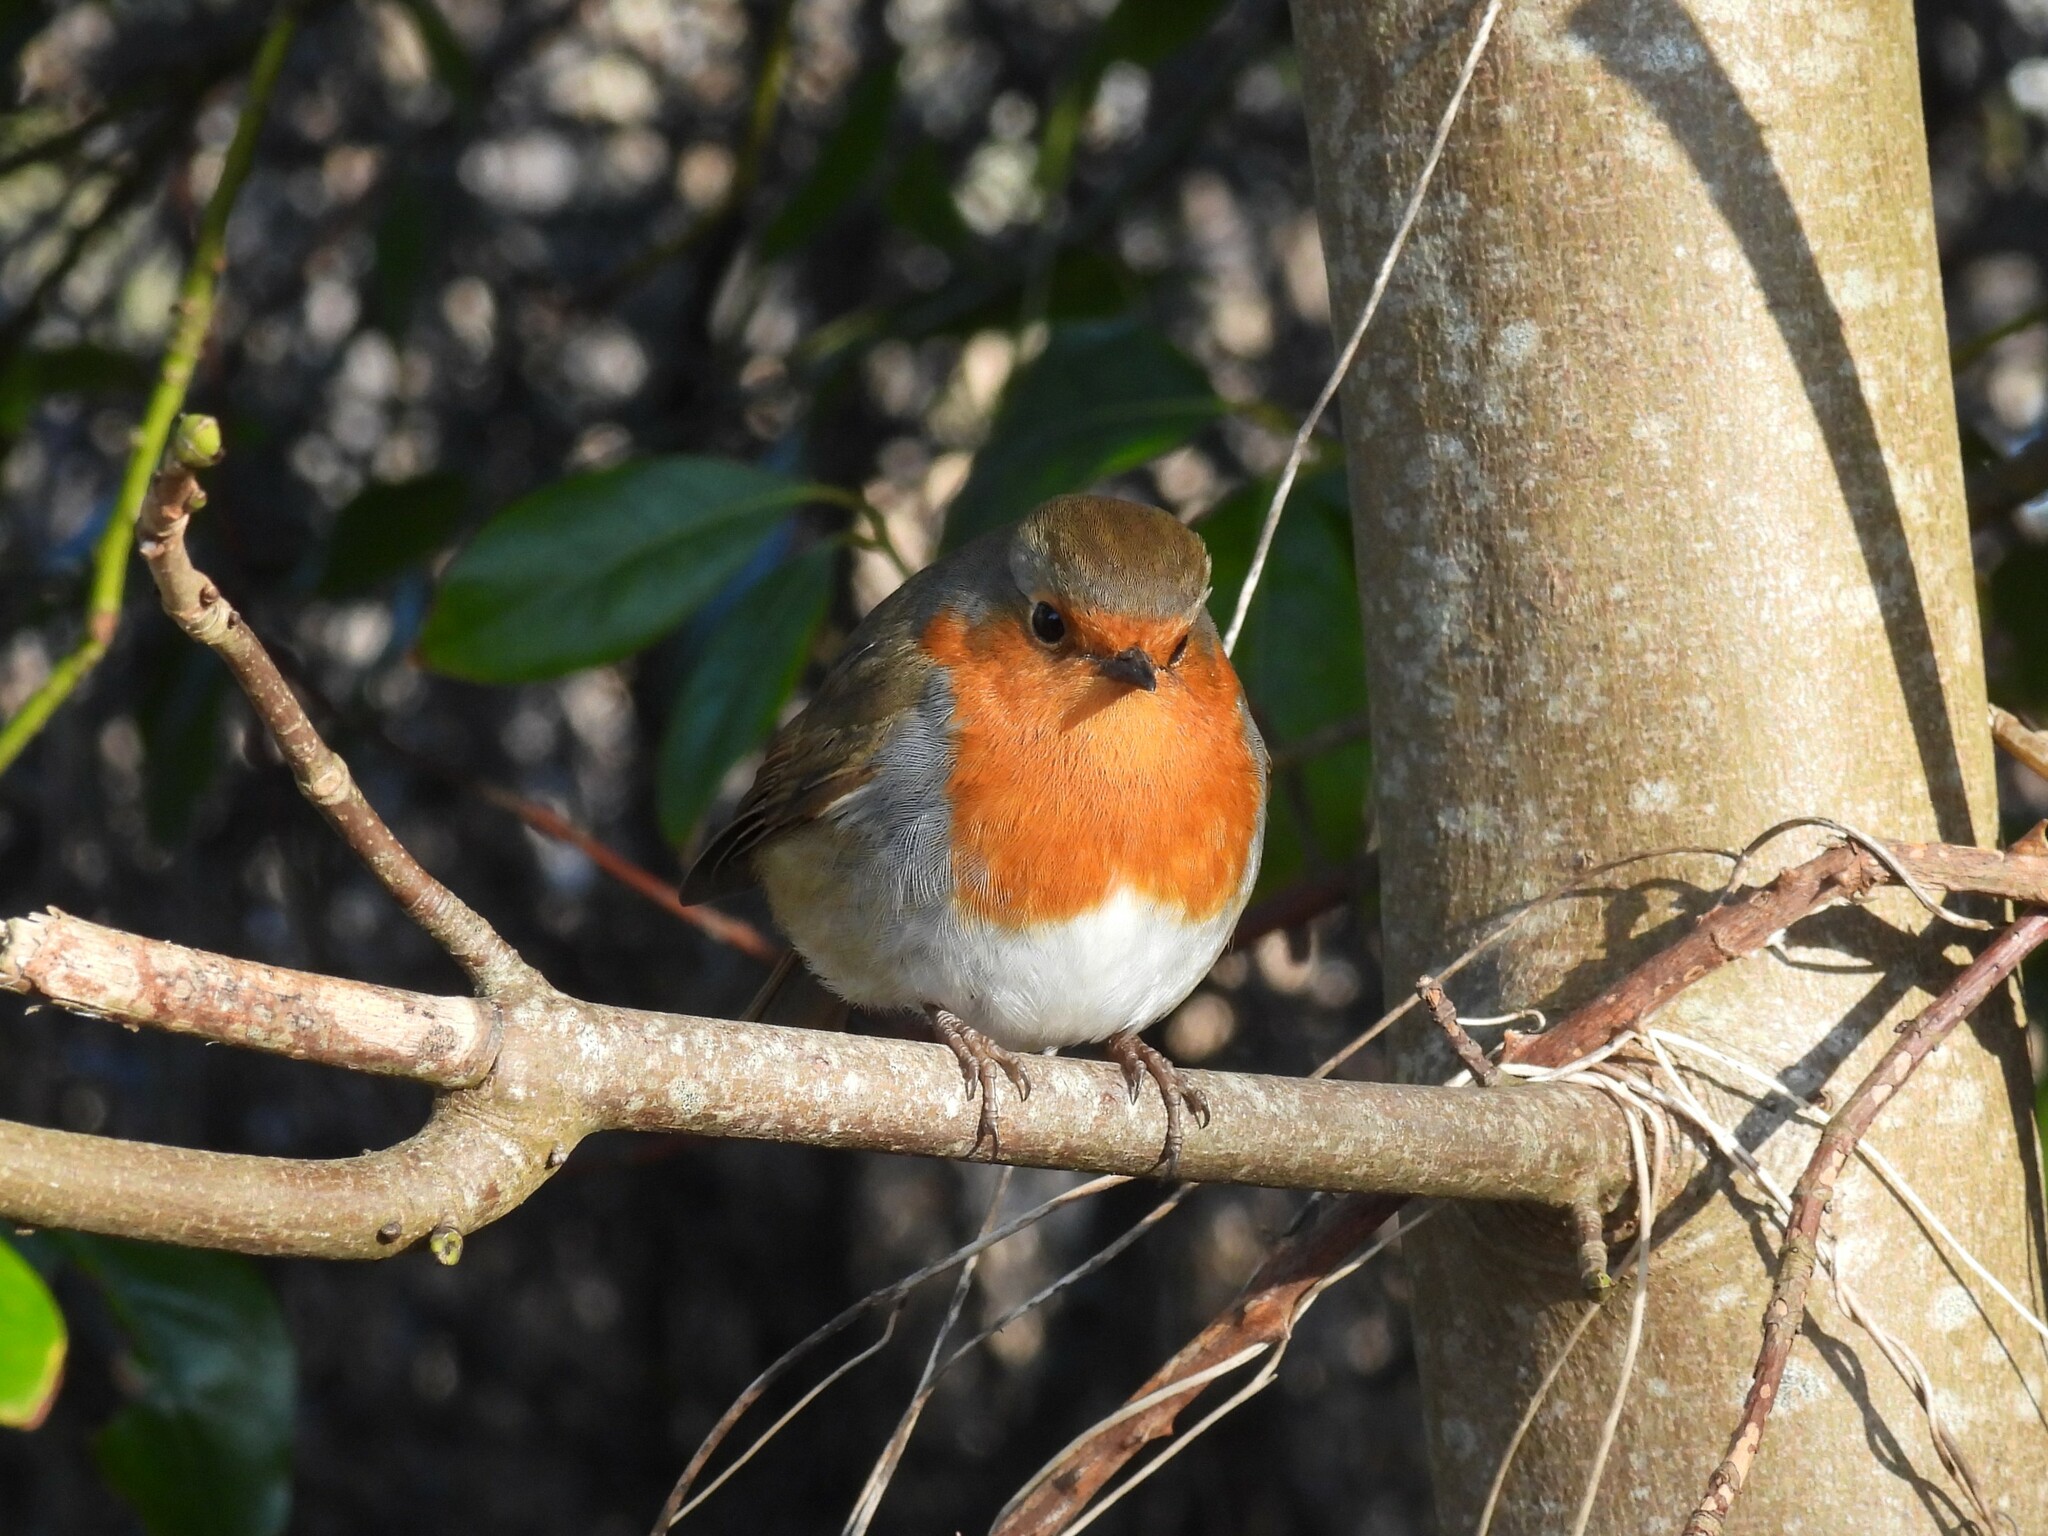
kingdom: Animalia
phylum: Chordata
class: Aves
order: Passeriformes
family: Muscicapidae
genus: Erithacus
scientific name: Erithacus rubecula
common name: European robin
